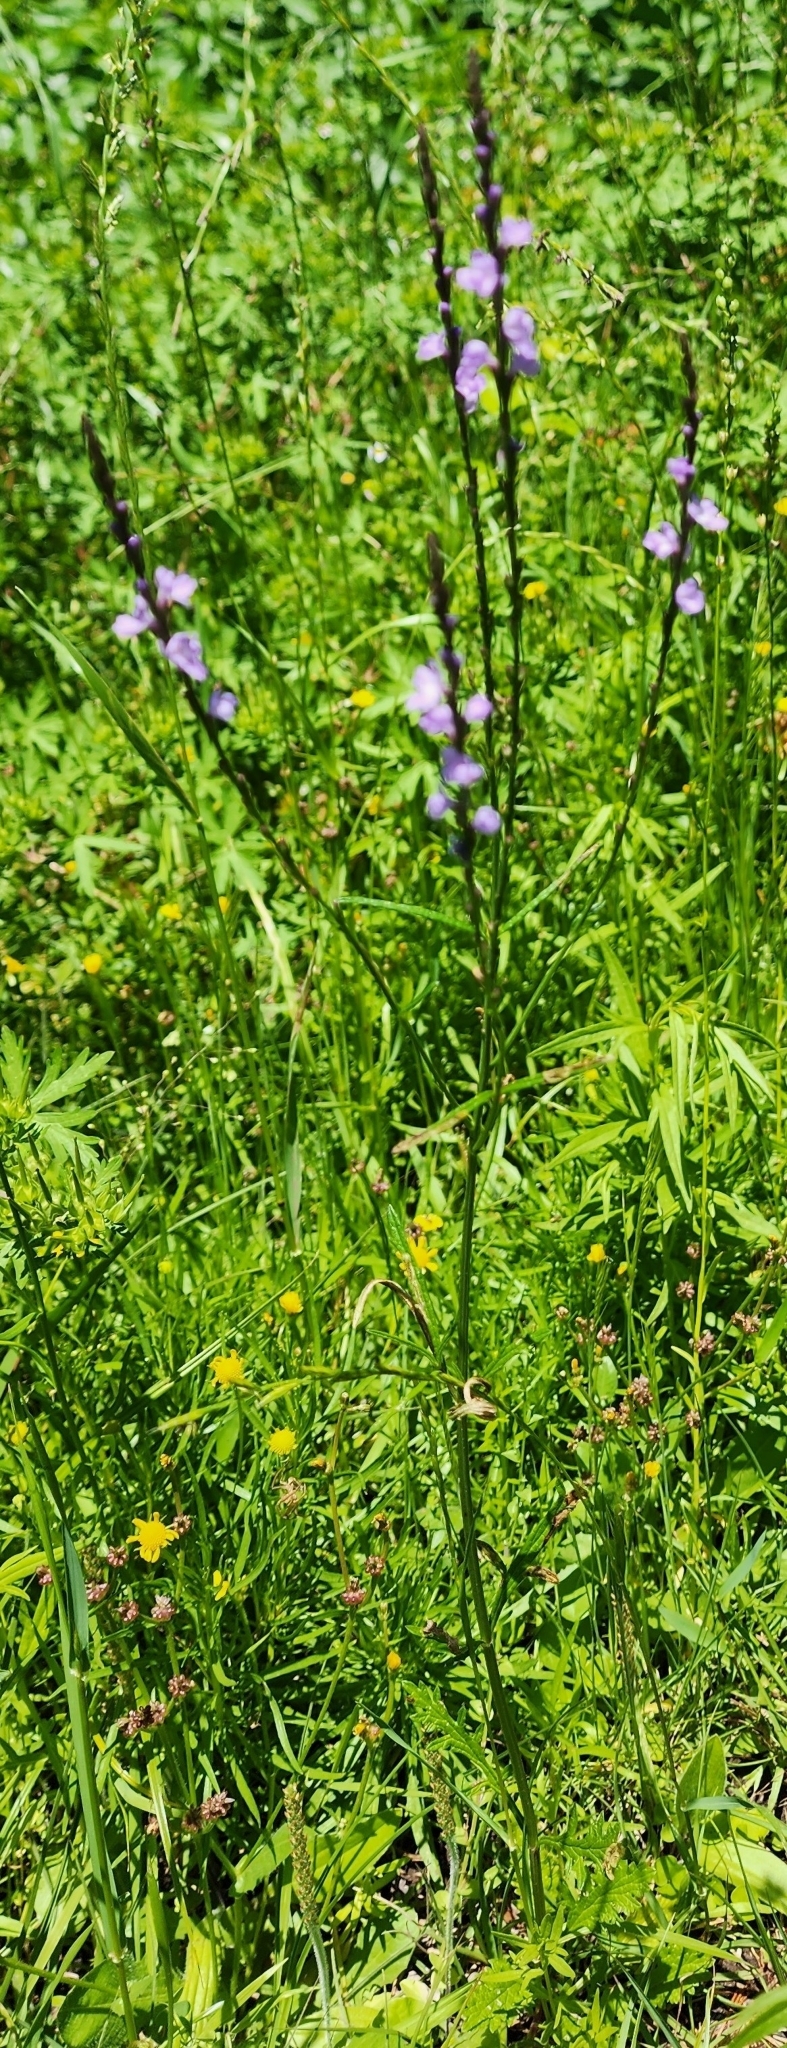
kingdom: Plantae
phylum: Tracheophyta
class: Magnoliopsida
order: Lamiales
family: Verbenaceae
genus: Verbena
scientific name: Verbena halei
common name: Texas vervain
